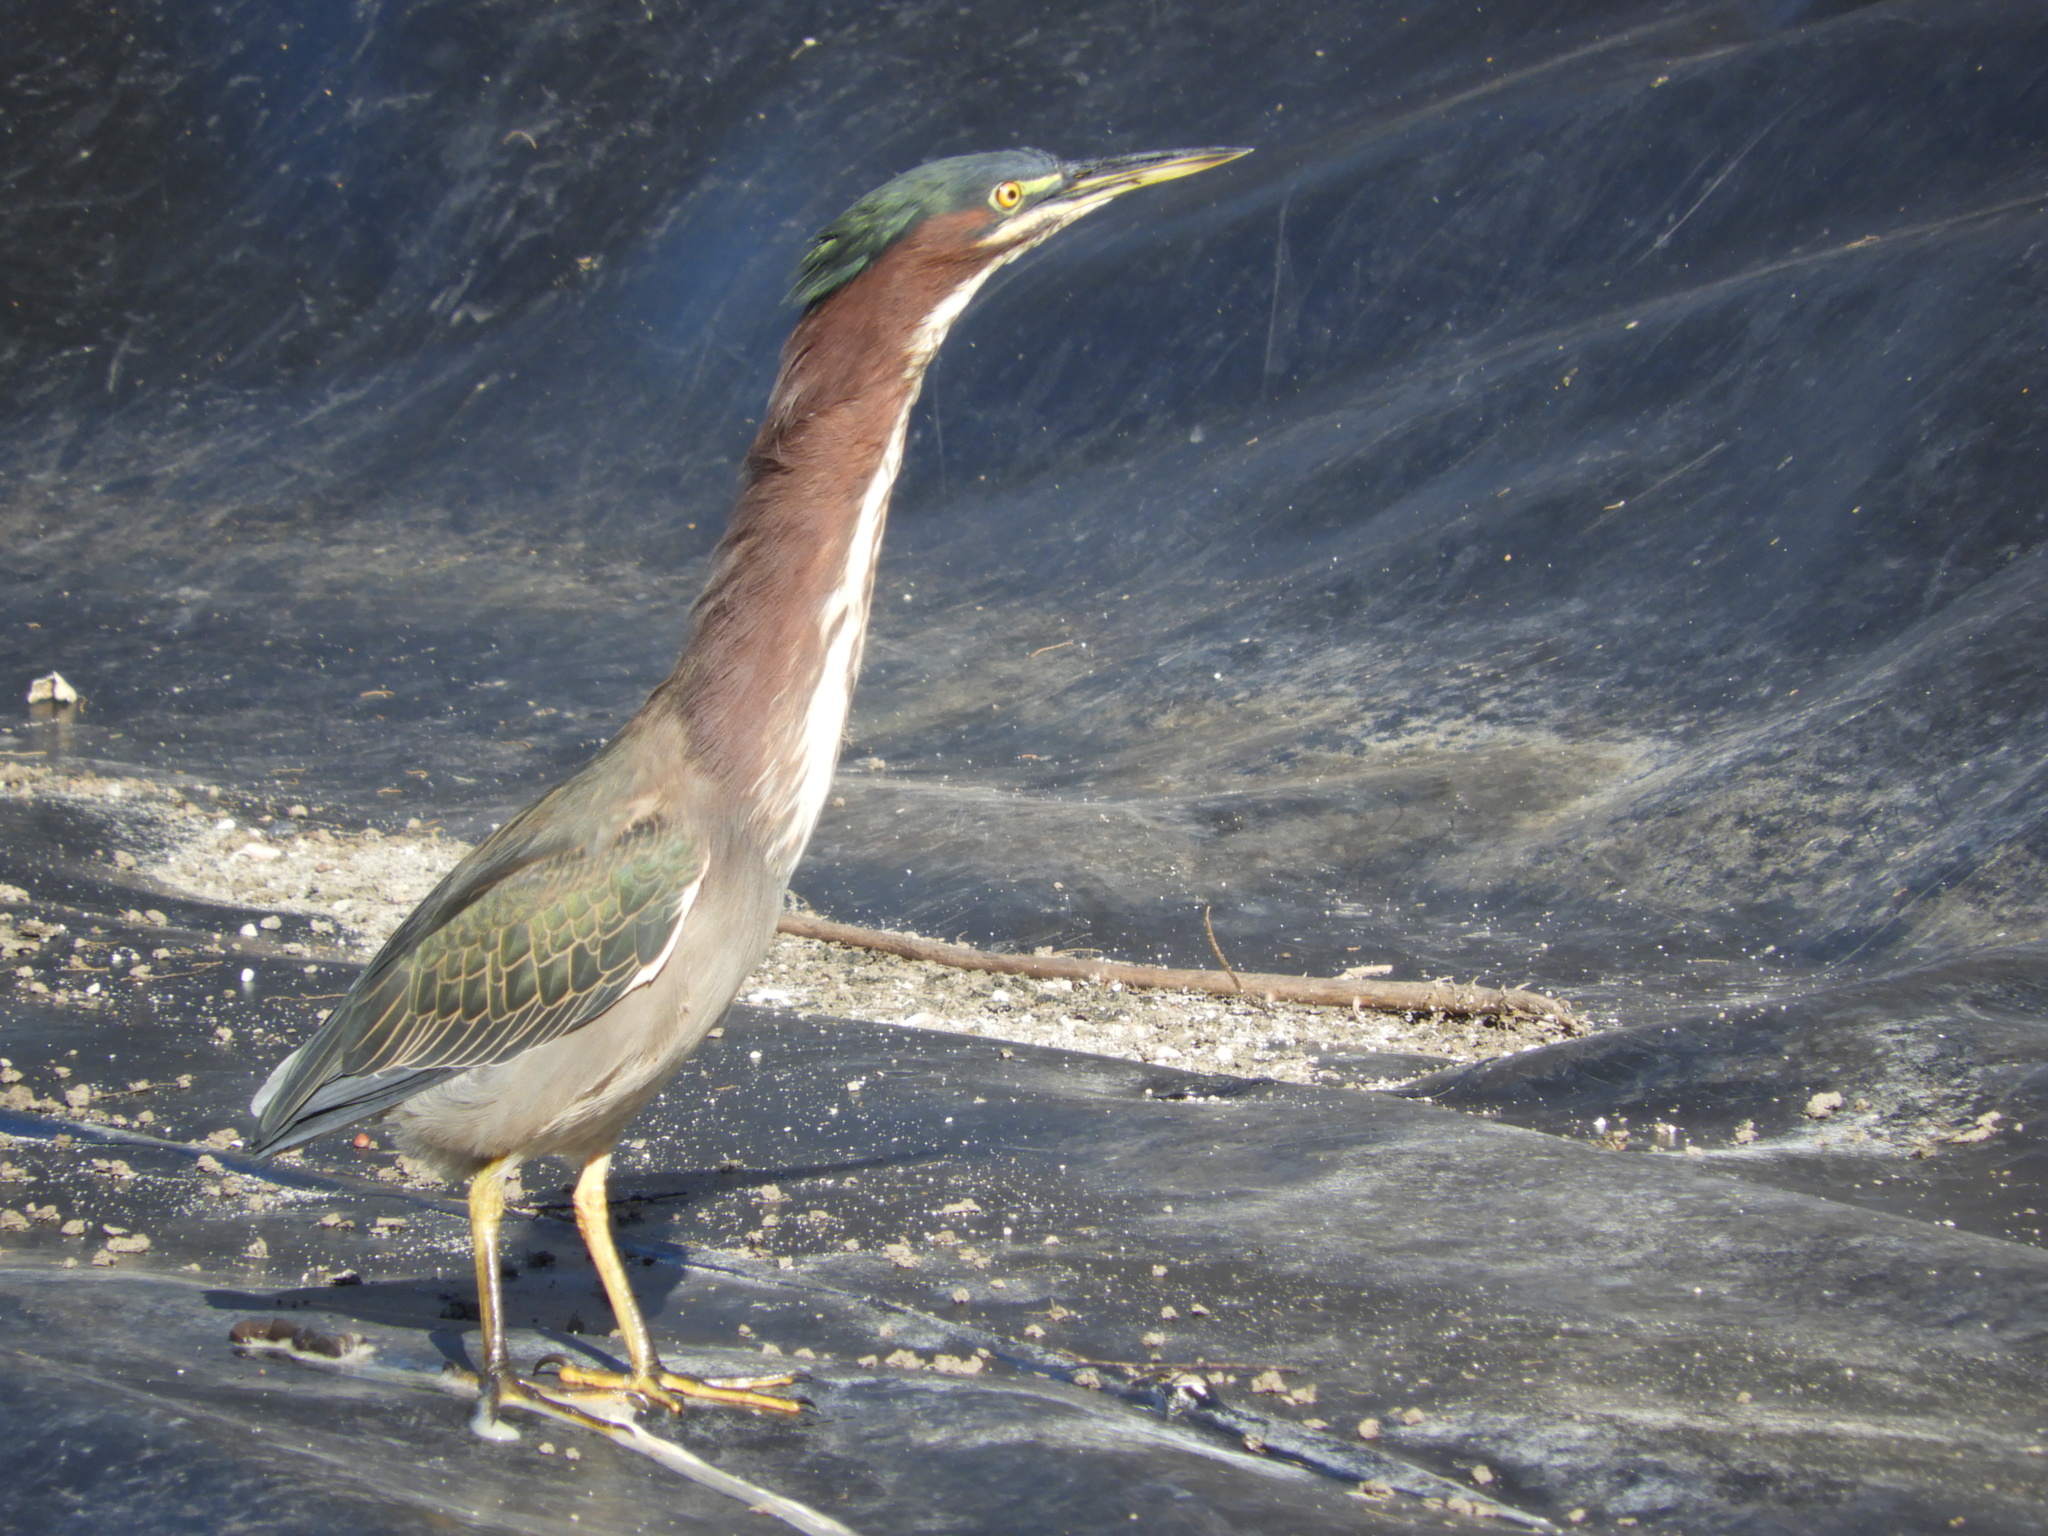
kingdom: Animalia
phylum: Chordata
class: Aves
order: Pelecaniformes
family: Ardeidae
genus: Butorides
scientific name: Butorides virescens
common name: Green heron
